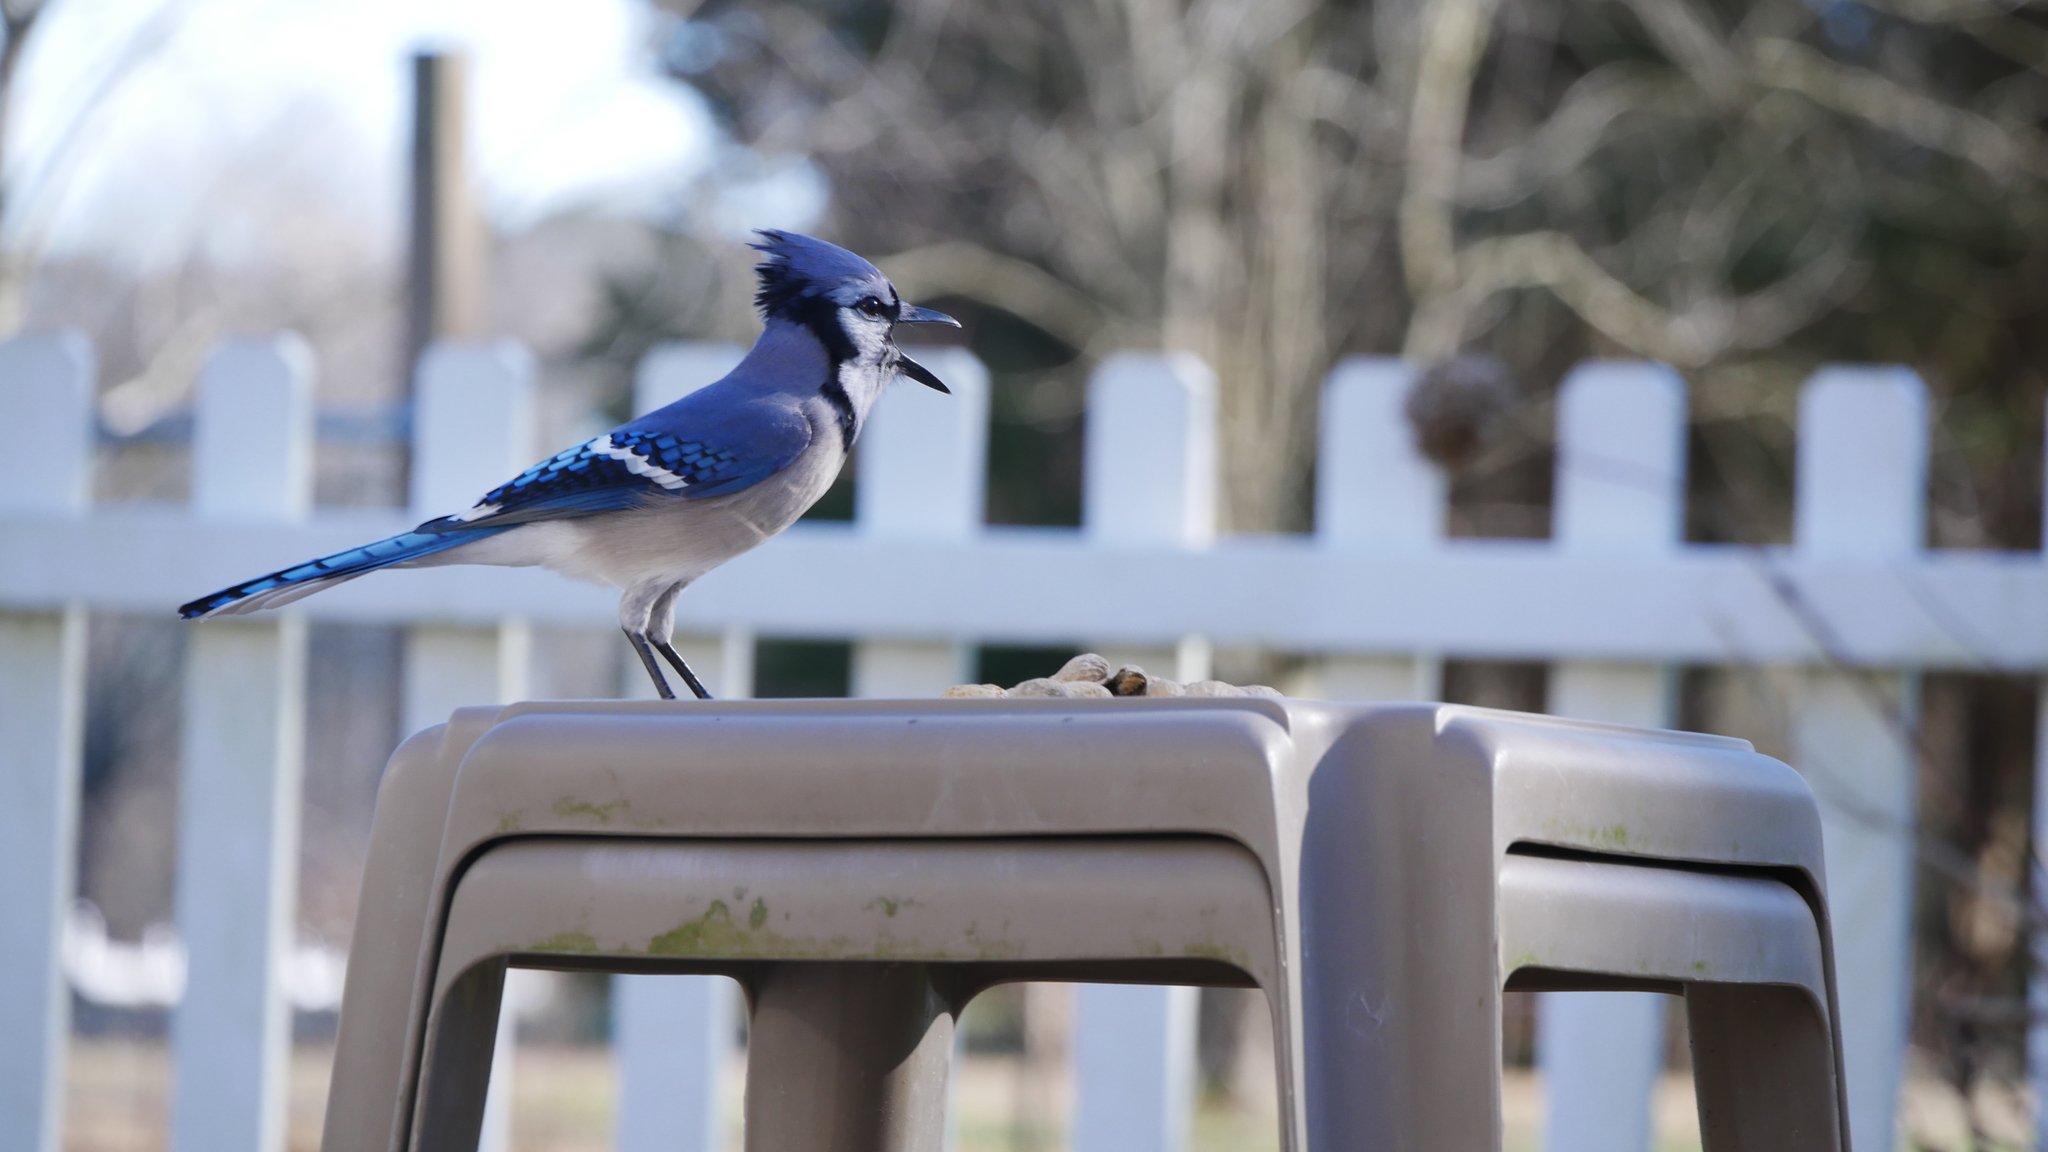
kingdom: Animalia
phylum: Chordata
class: Aves
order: Passeriformes
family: Corvidae
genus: Cyanocitta
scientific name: Cyanocitta cristata
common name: Blue jay
